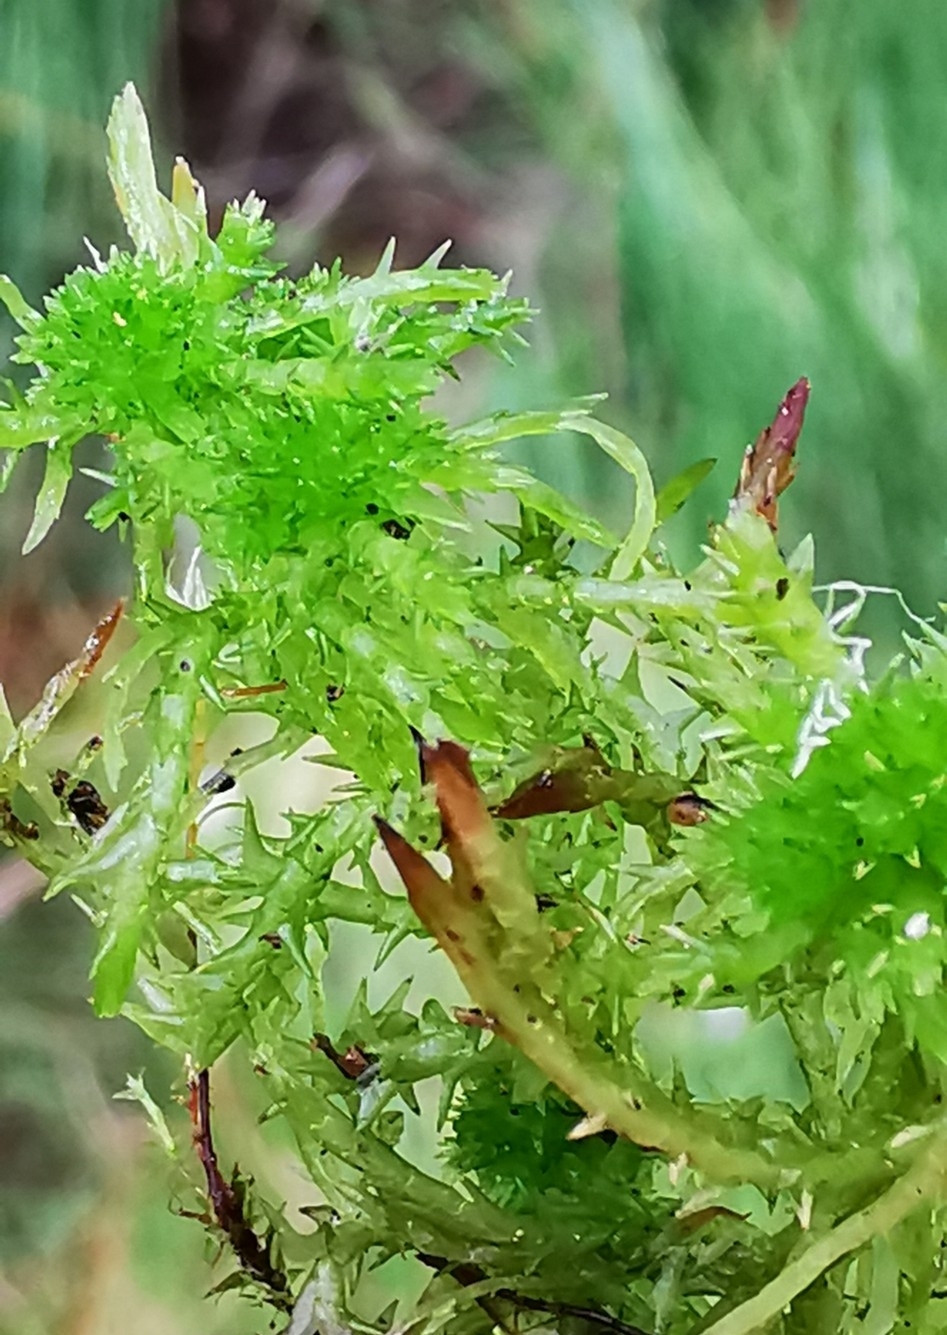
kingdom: Plantae
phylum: Bryophyta
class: Sphagnopsida
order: Sphagnales
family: Sphagnaceae
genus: Sphagnum
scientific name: Sphagnum squarrosum
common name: Shaggy peat moss
